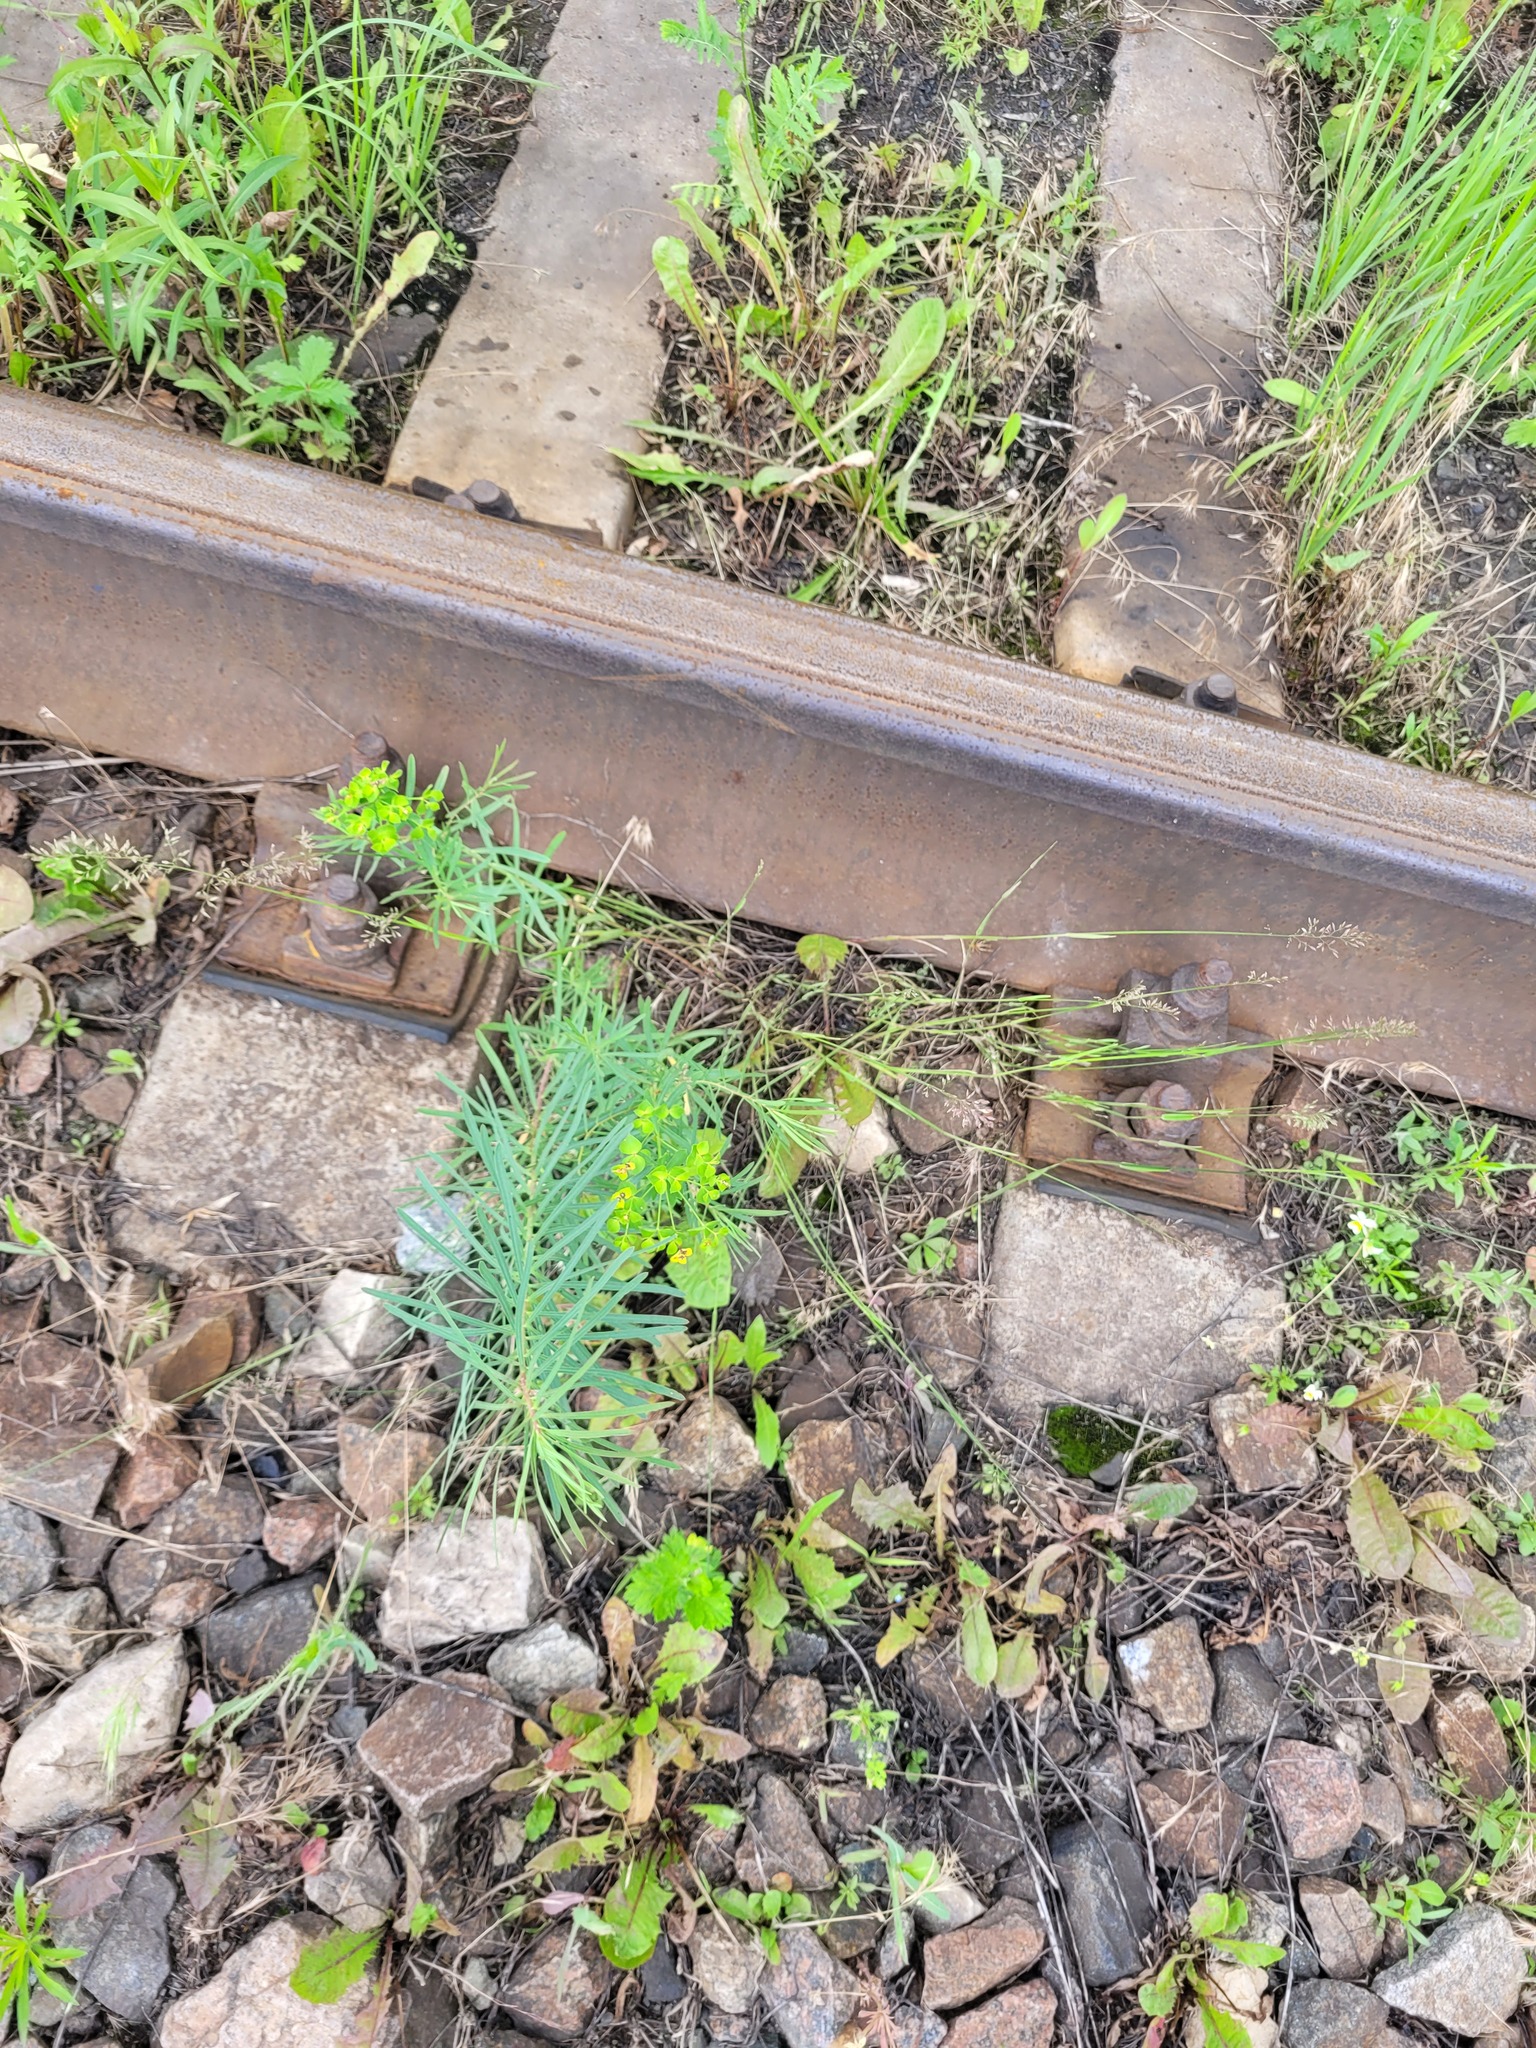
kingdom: Plantae
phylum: Tracheophyta
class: Magnoliopsida
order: Malpighiales
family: Euphorbiaceae
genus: Euphorbia
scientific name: Euphorbia virgata
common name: Leafy spurge
